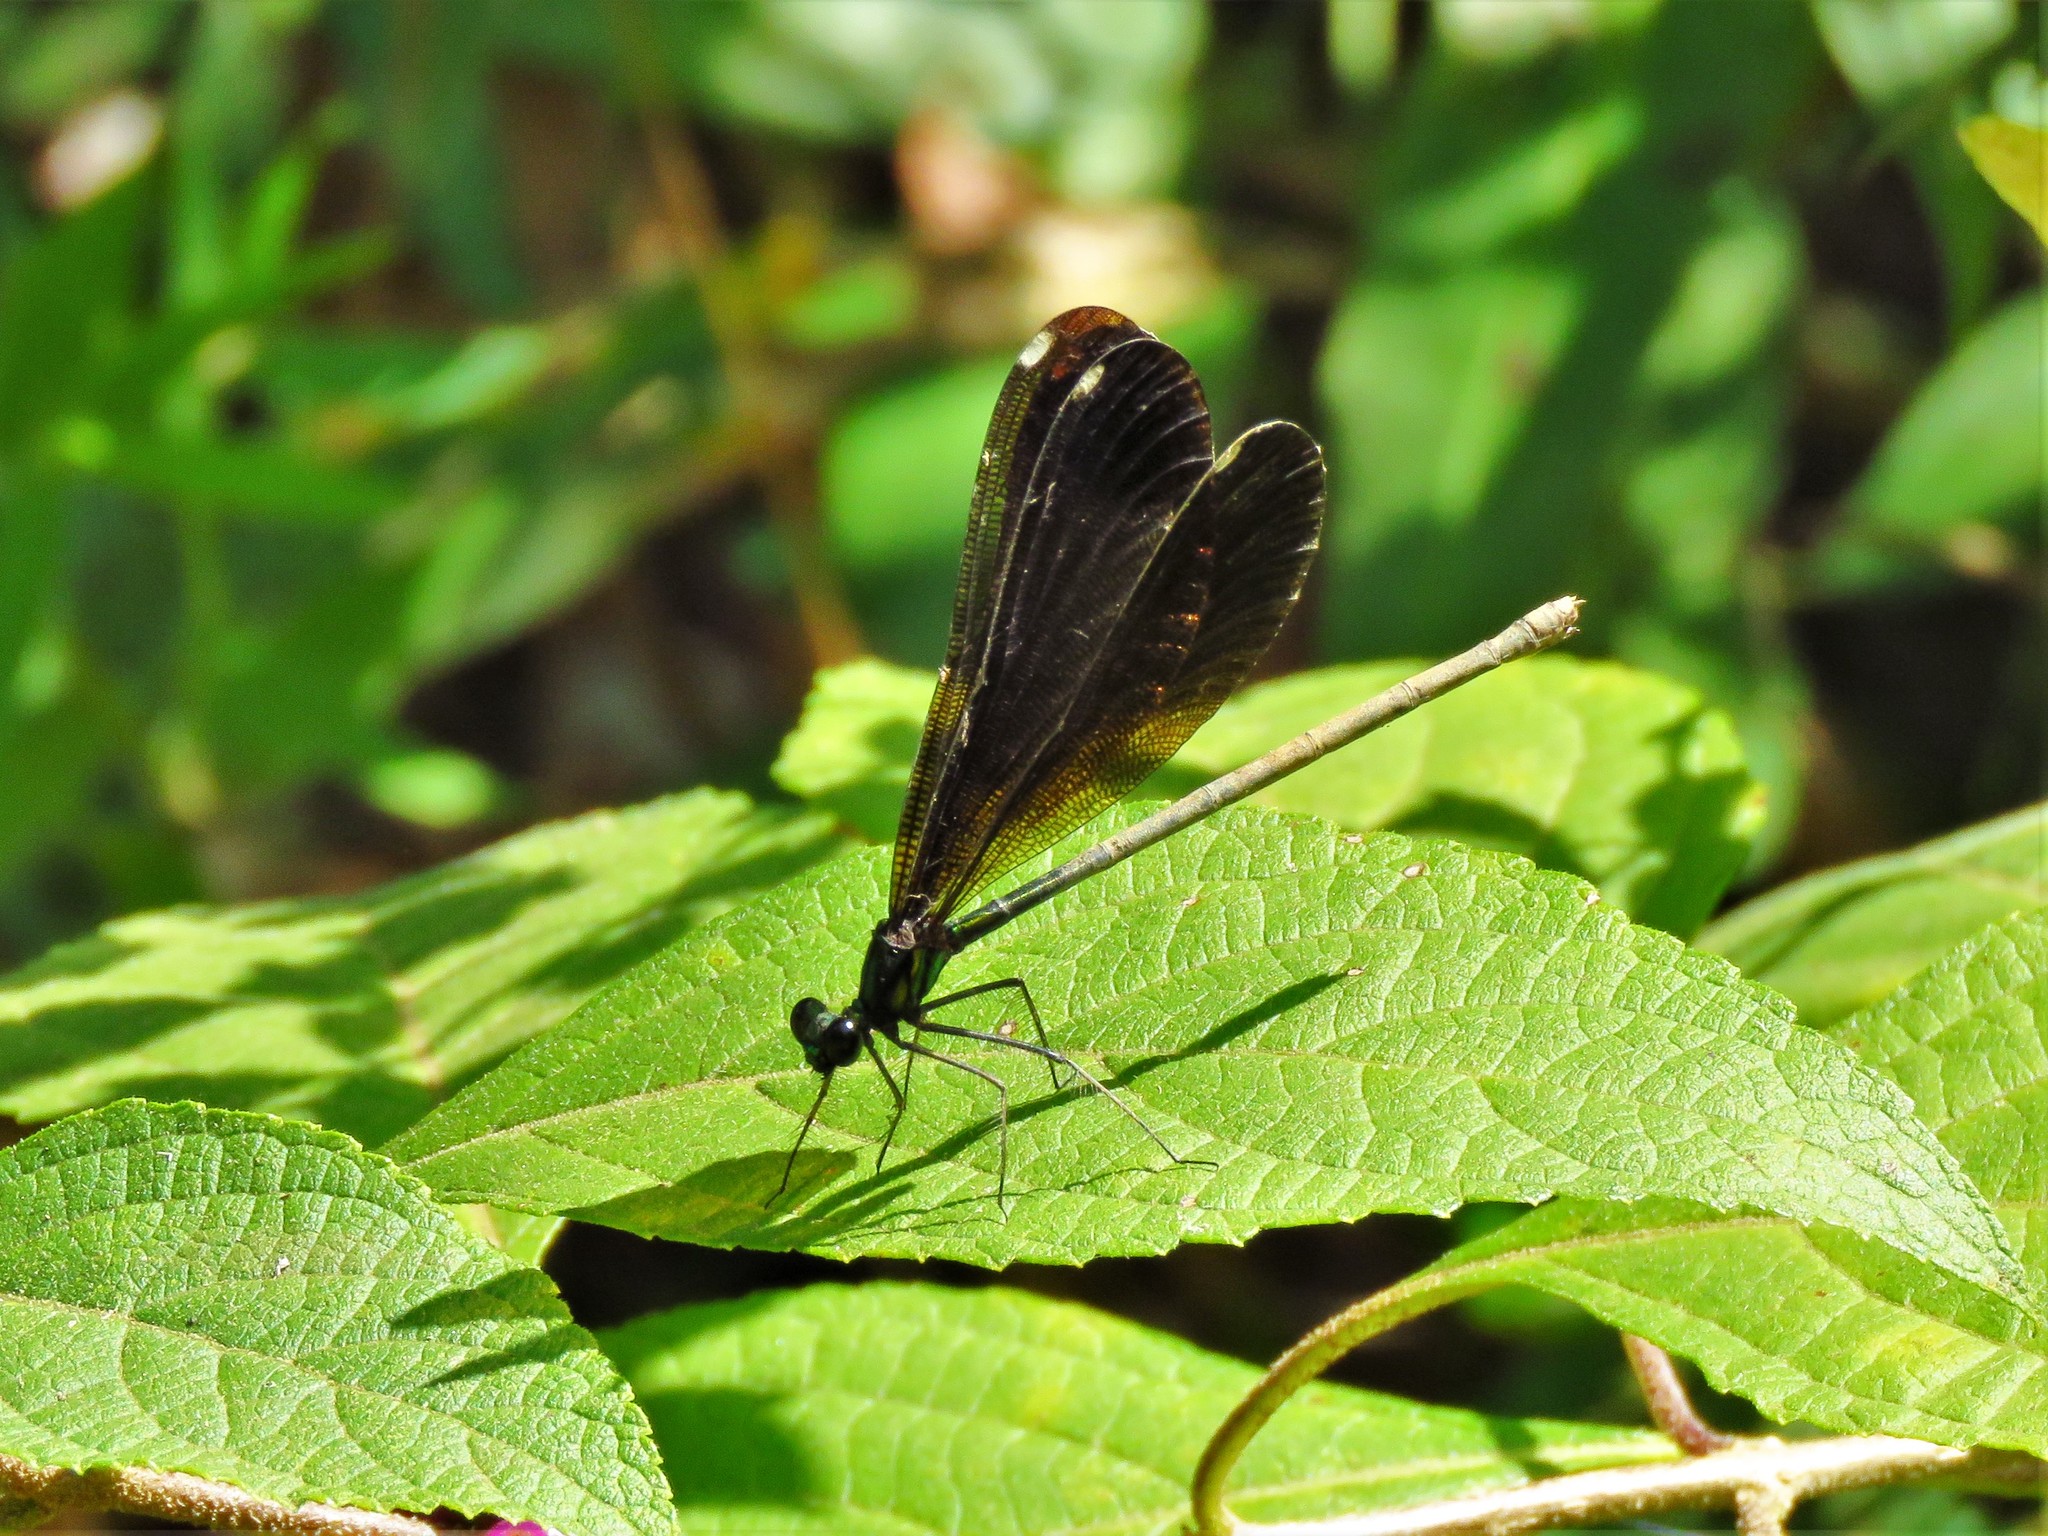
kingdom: Animalia
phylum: Arthropoda
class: Insecta
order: Odonata
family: Calopterygidae
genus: Calopteryx
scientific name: Calopteryx maculata
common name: Ebony jewelwing
